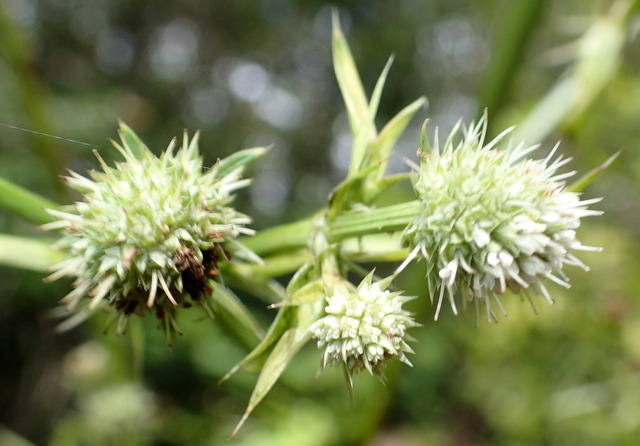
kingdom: Plantae
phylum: Tracheophyta
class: Magnoliopsida
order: Apiales
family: Apiaceae
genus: Eryngium
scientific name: Eryngium yuccifolium
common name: Button eryngo
